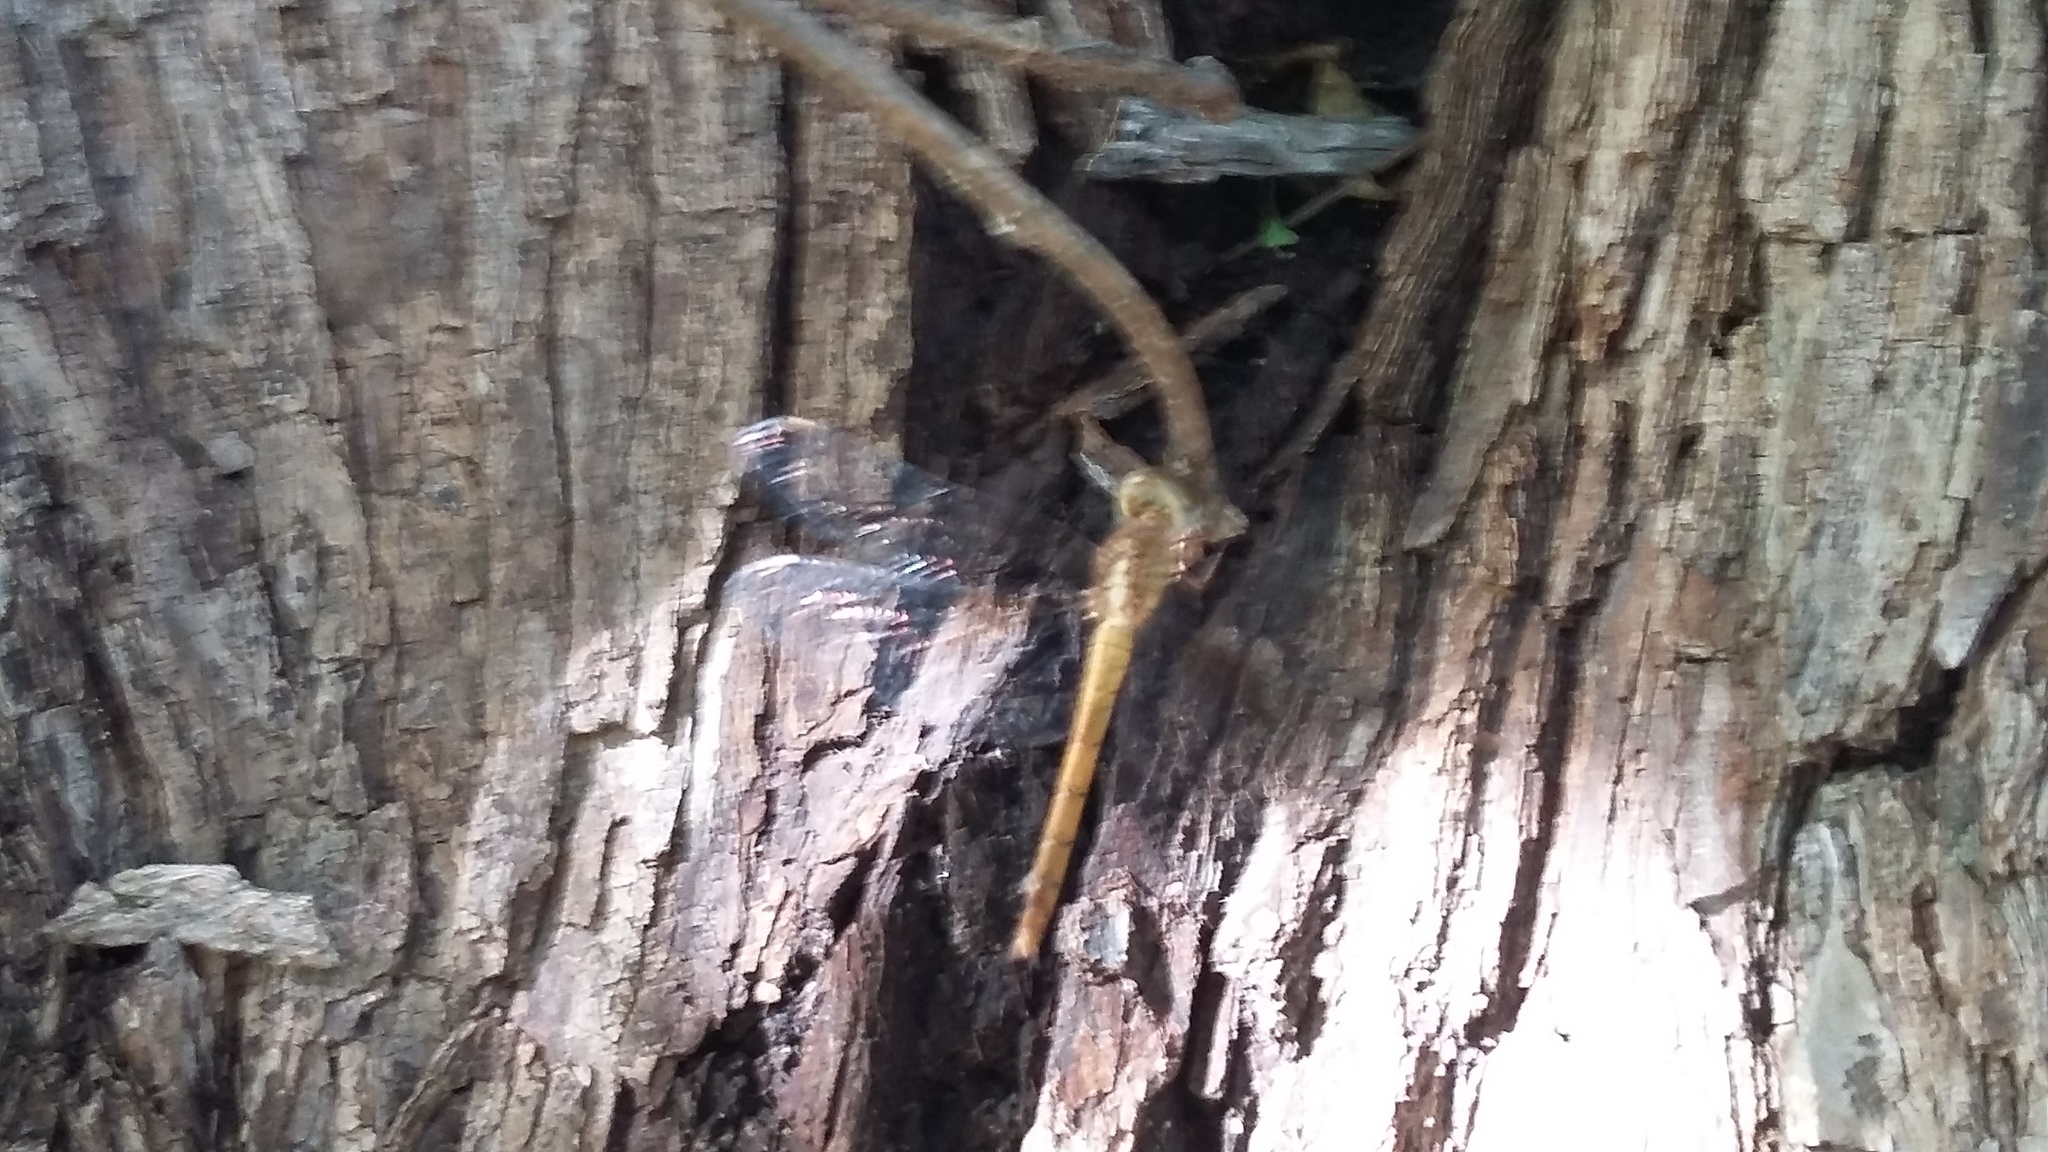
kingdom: Animalia
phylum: Arthropoda
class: Insecta
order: Odonata
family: Libellulidae
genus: Tholymis
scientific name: Tholymis tillarga
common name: Coral-tailed cloud wing
